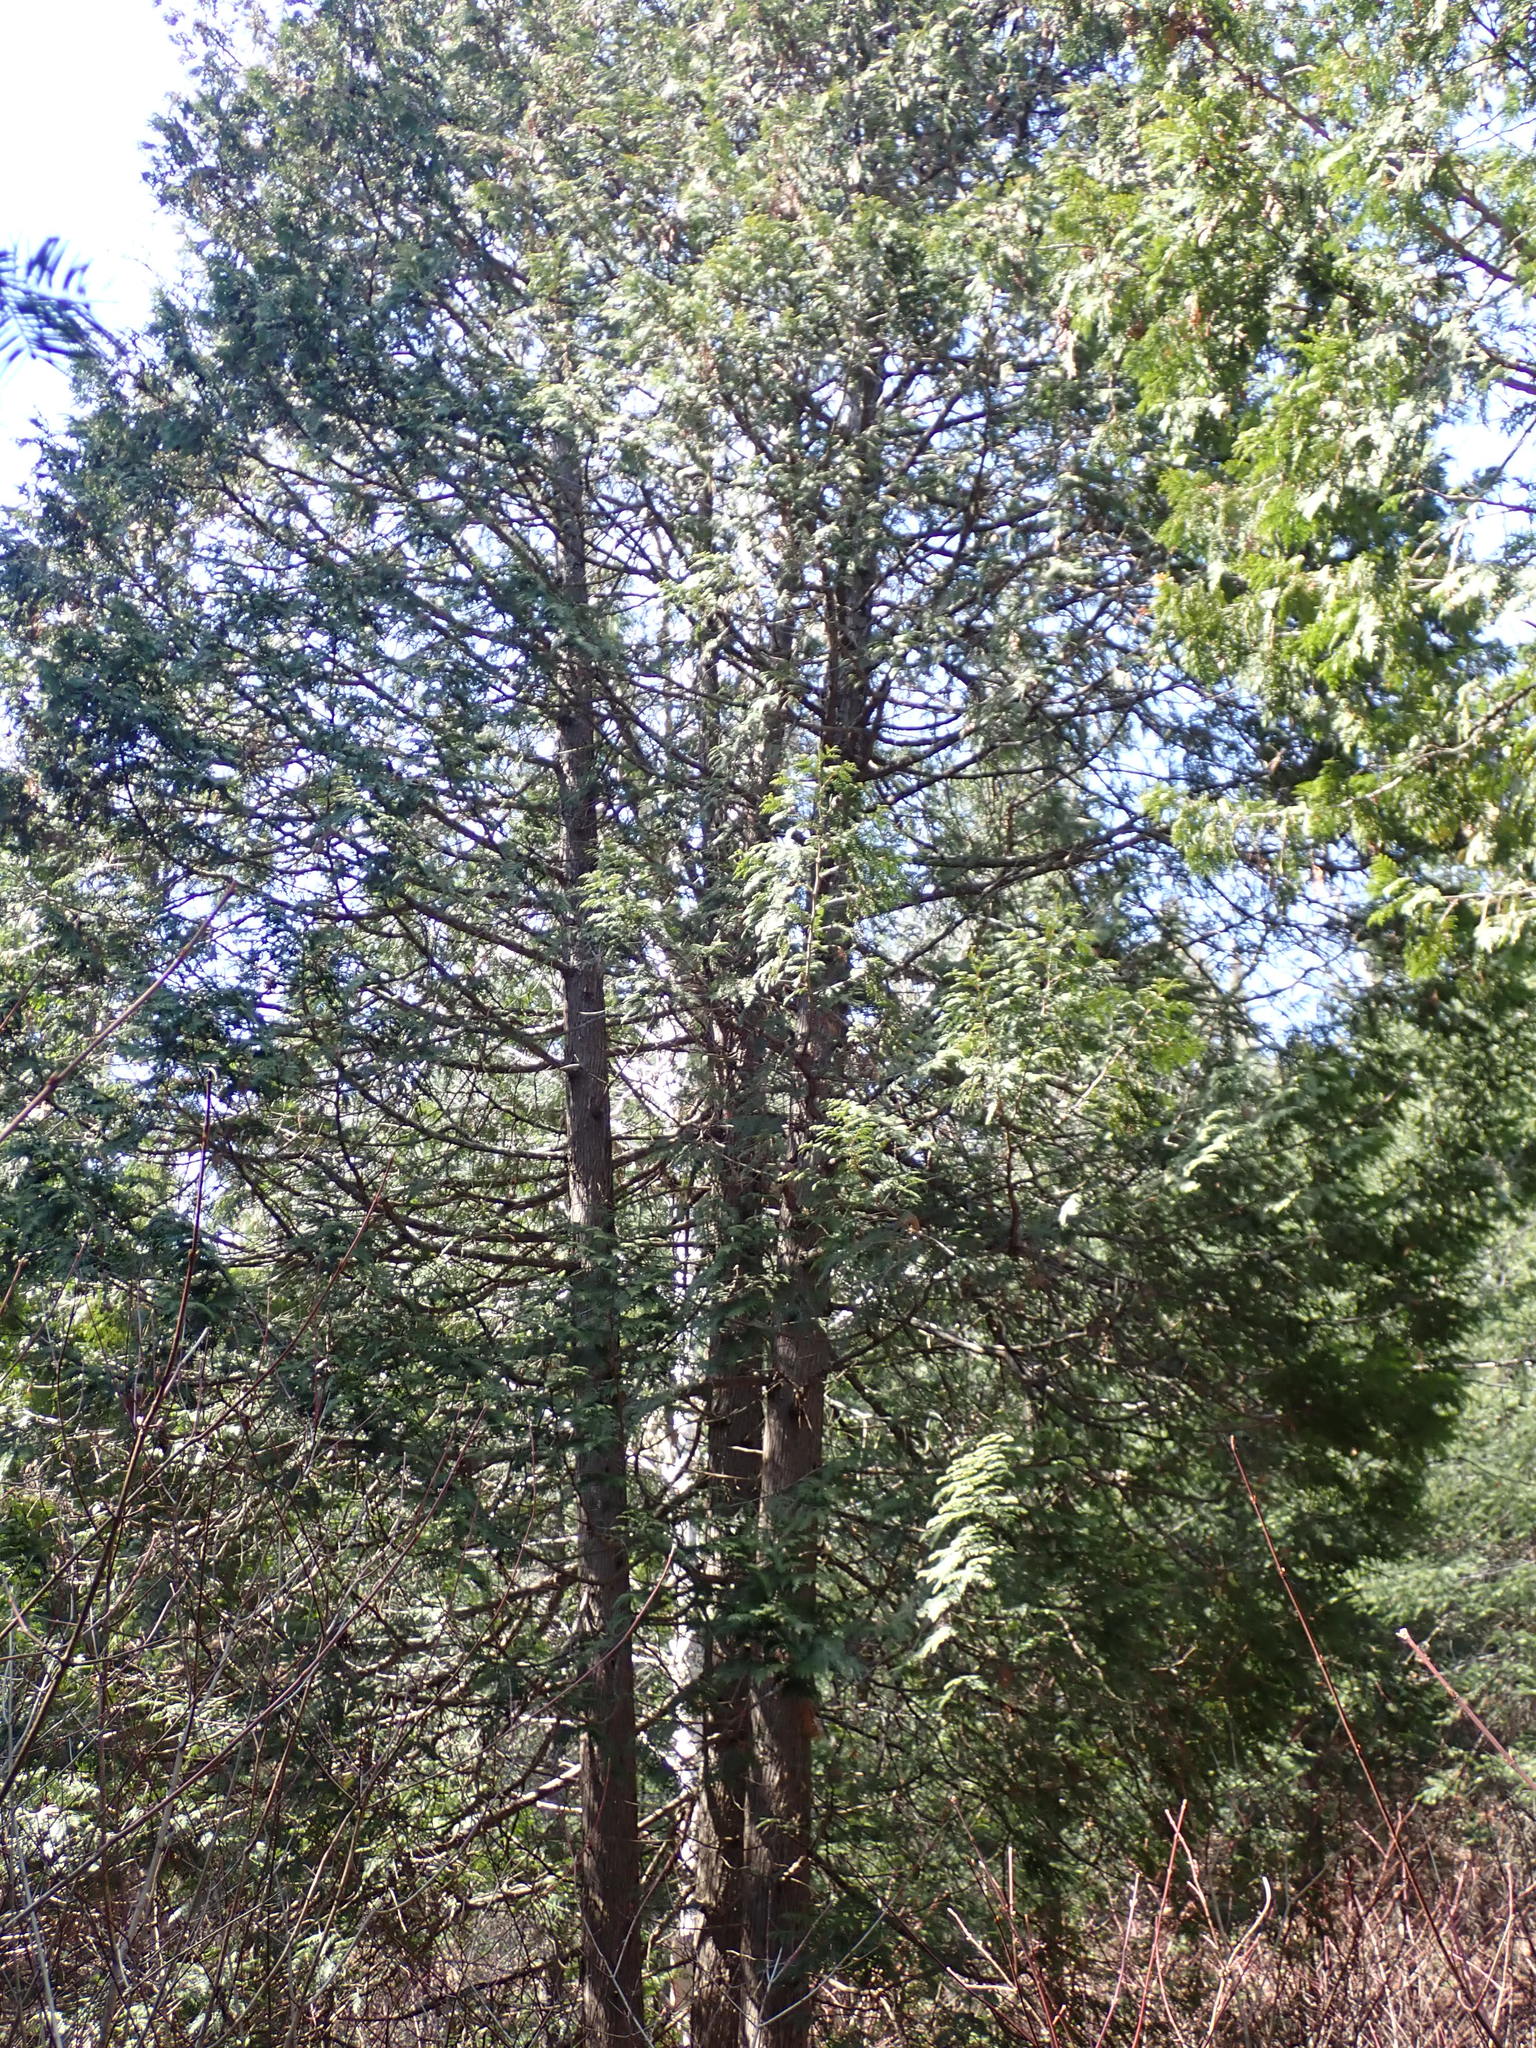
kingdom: Plantae
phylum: Tracheophyta
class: Pinopsida
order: Pinales
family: Cupressaceae
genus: Thuja
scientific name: Thuja occidentalis
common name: Northern white-cedar
